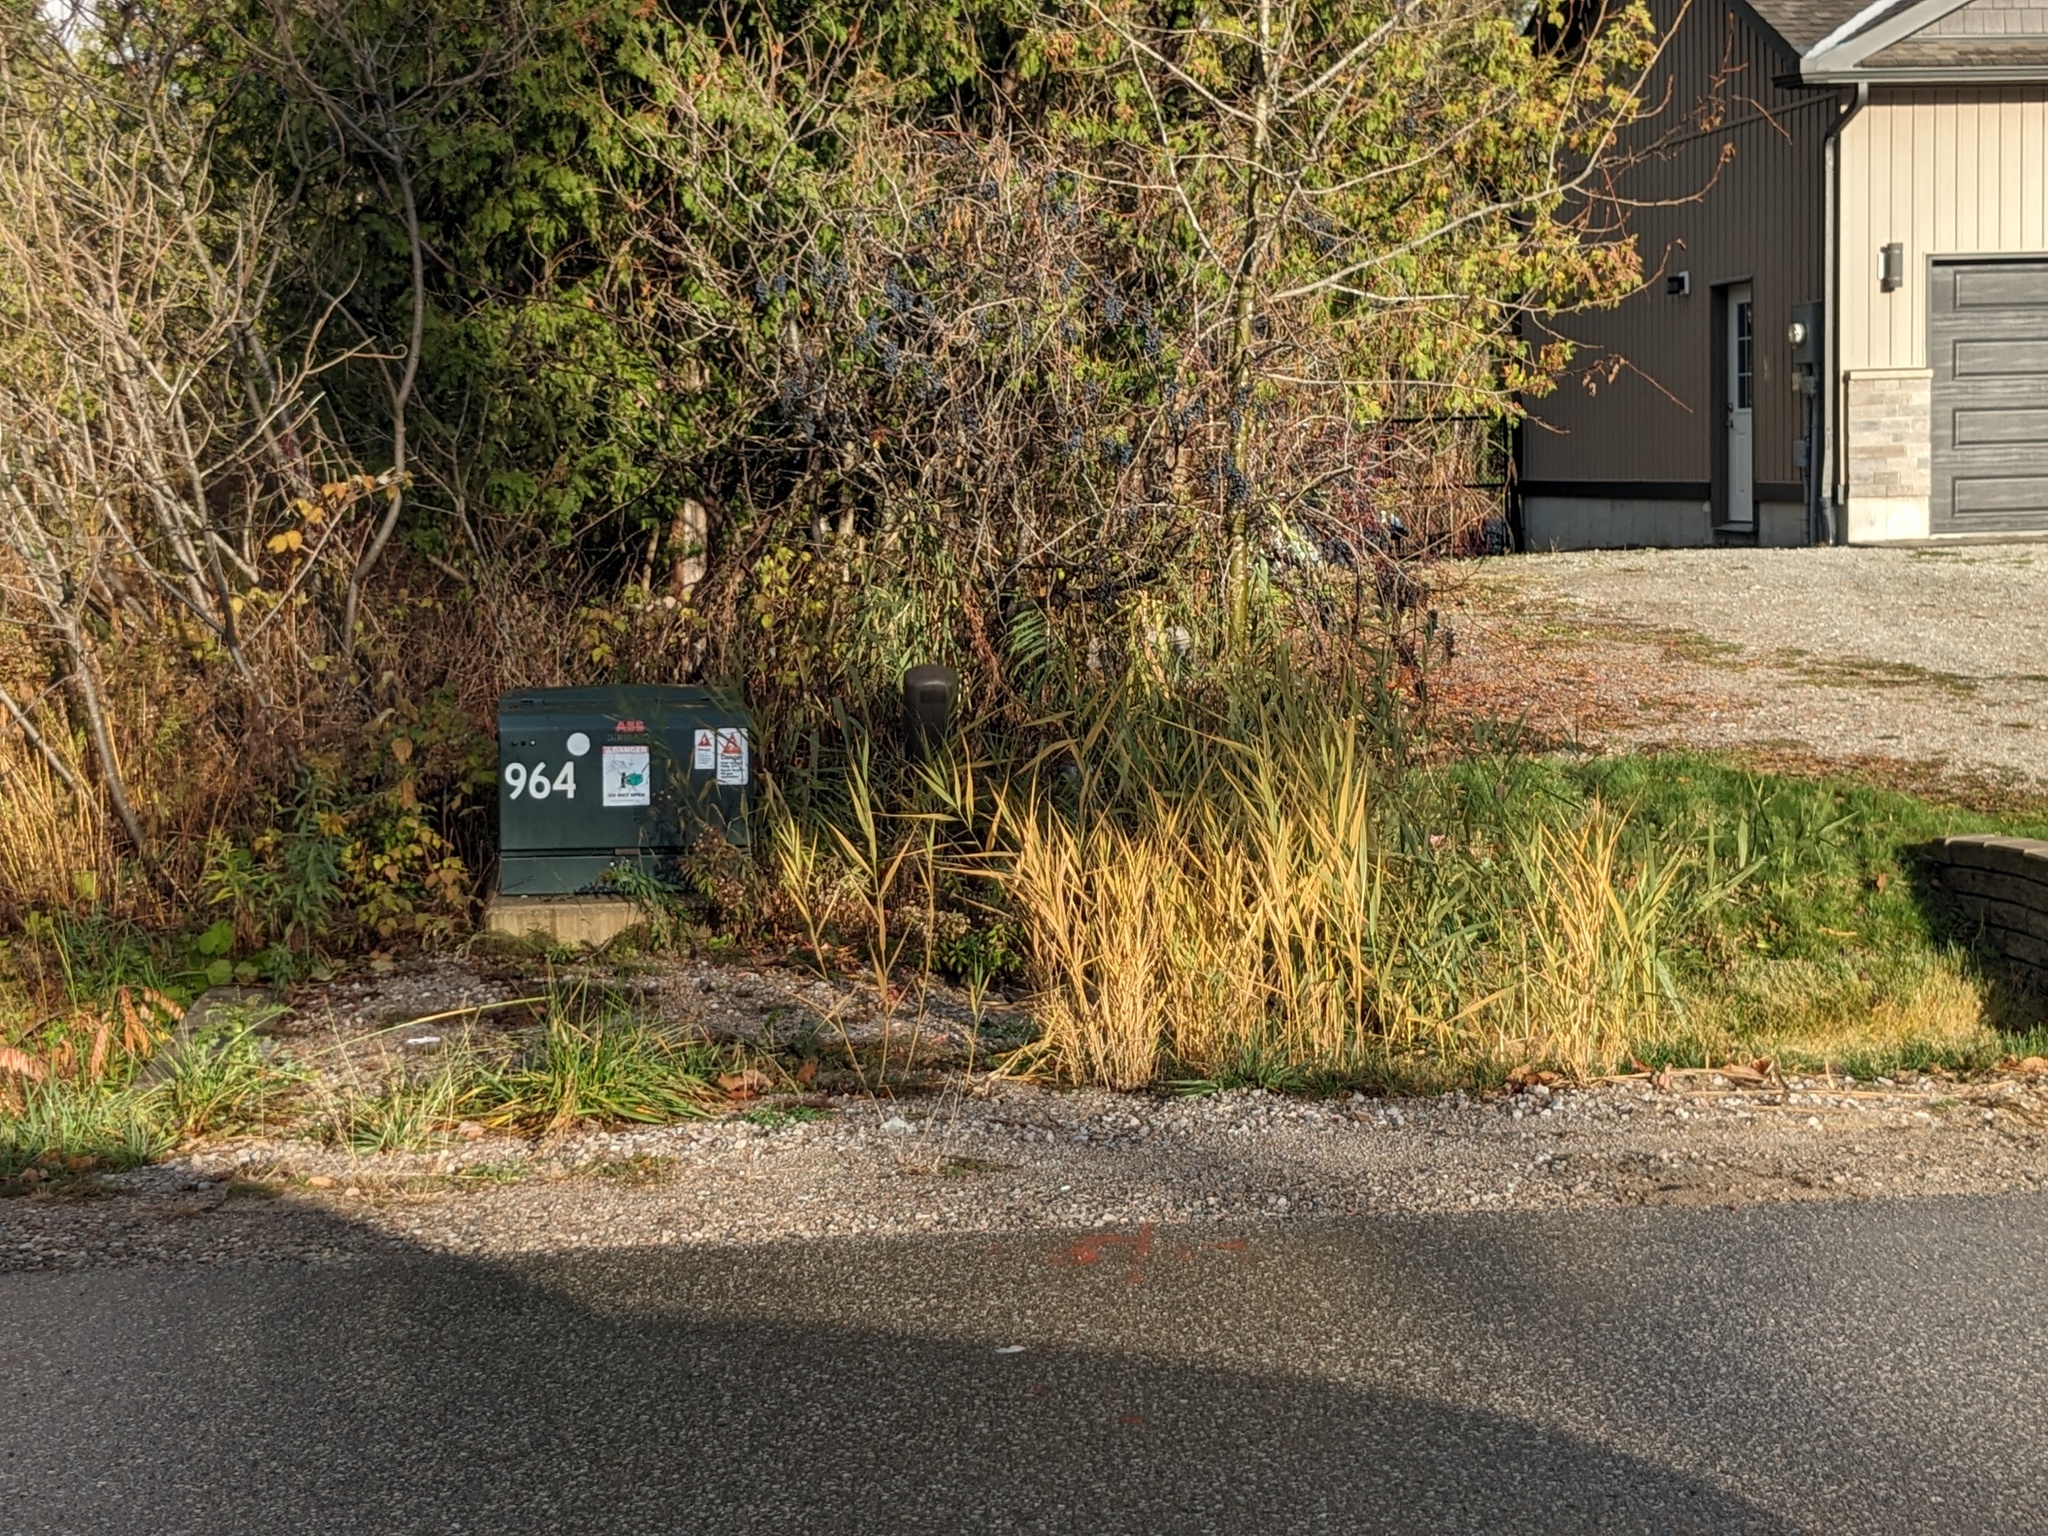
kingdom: Plantae
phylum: Tracheophyta
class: Liliopsida
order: Poales
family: Poaceae
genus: Phragmites
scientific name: Phragmites australis
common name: Common reed
